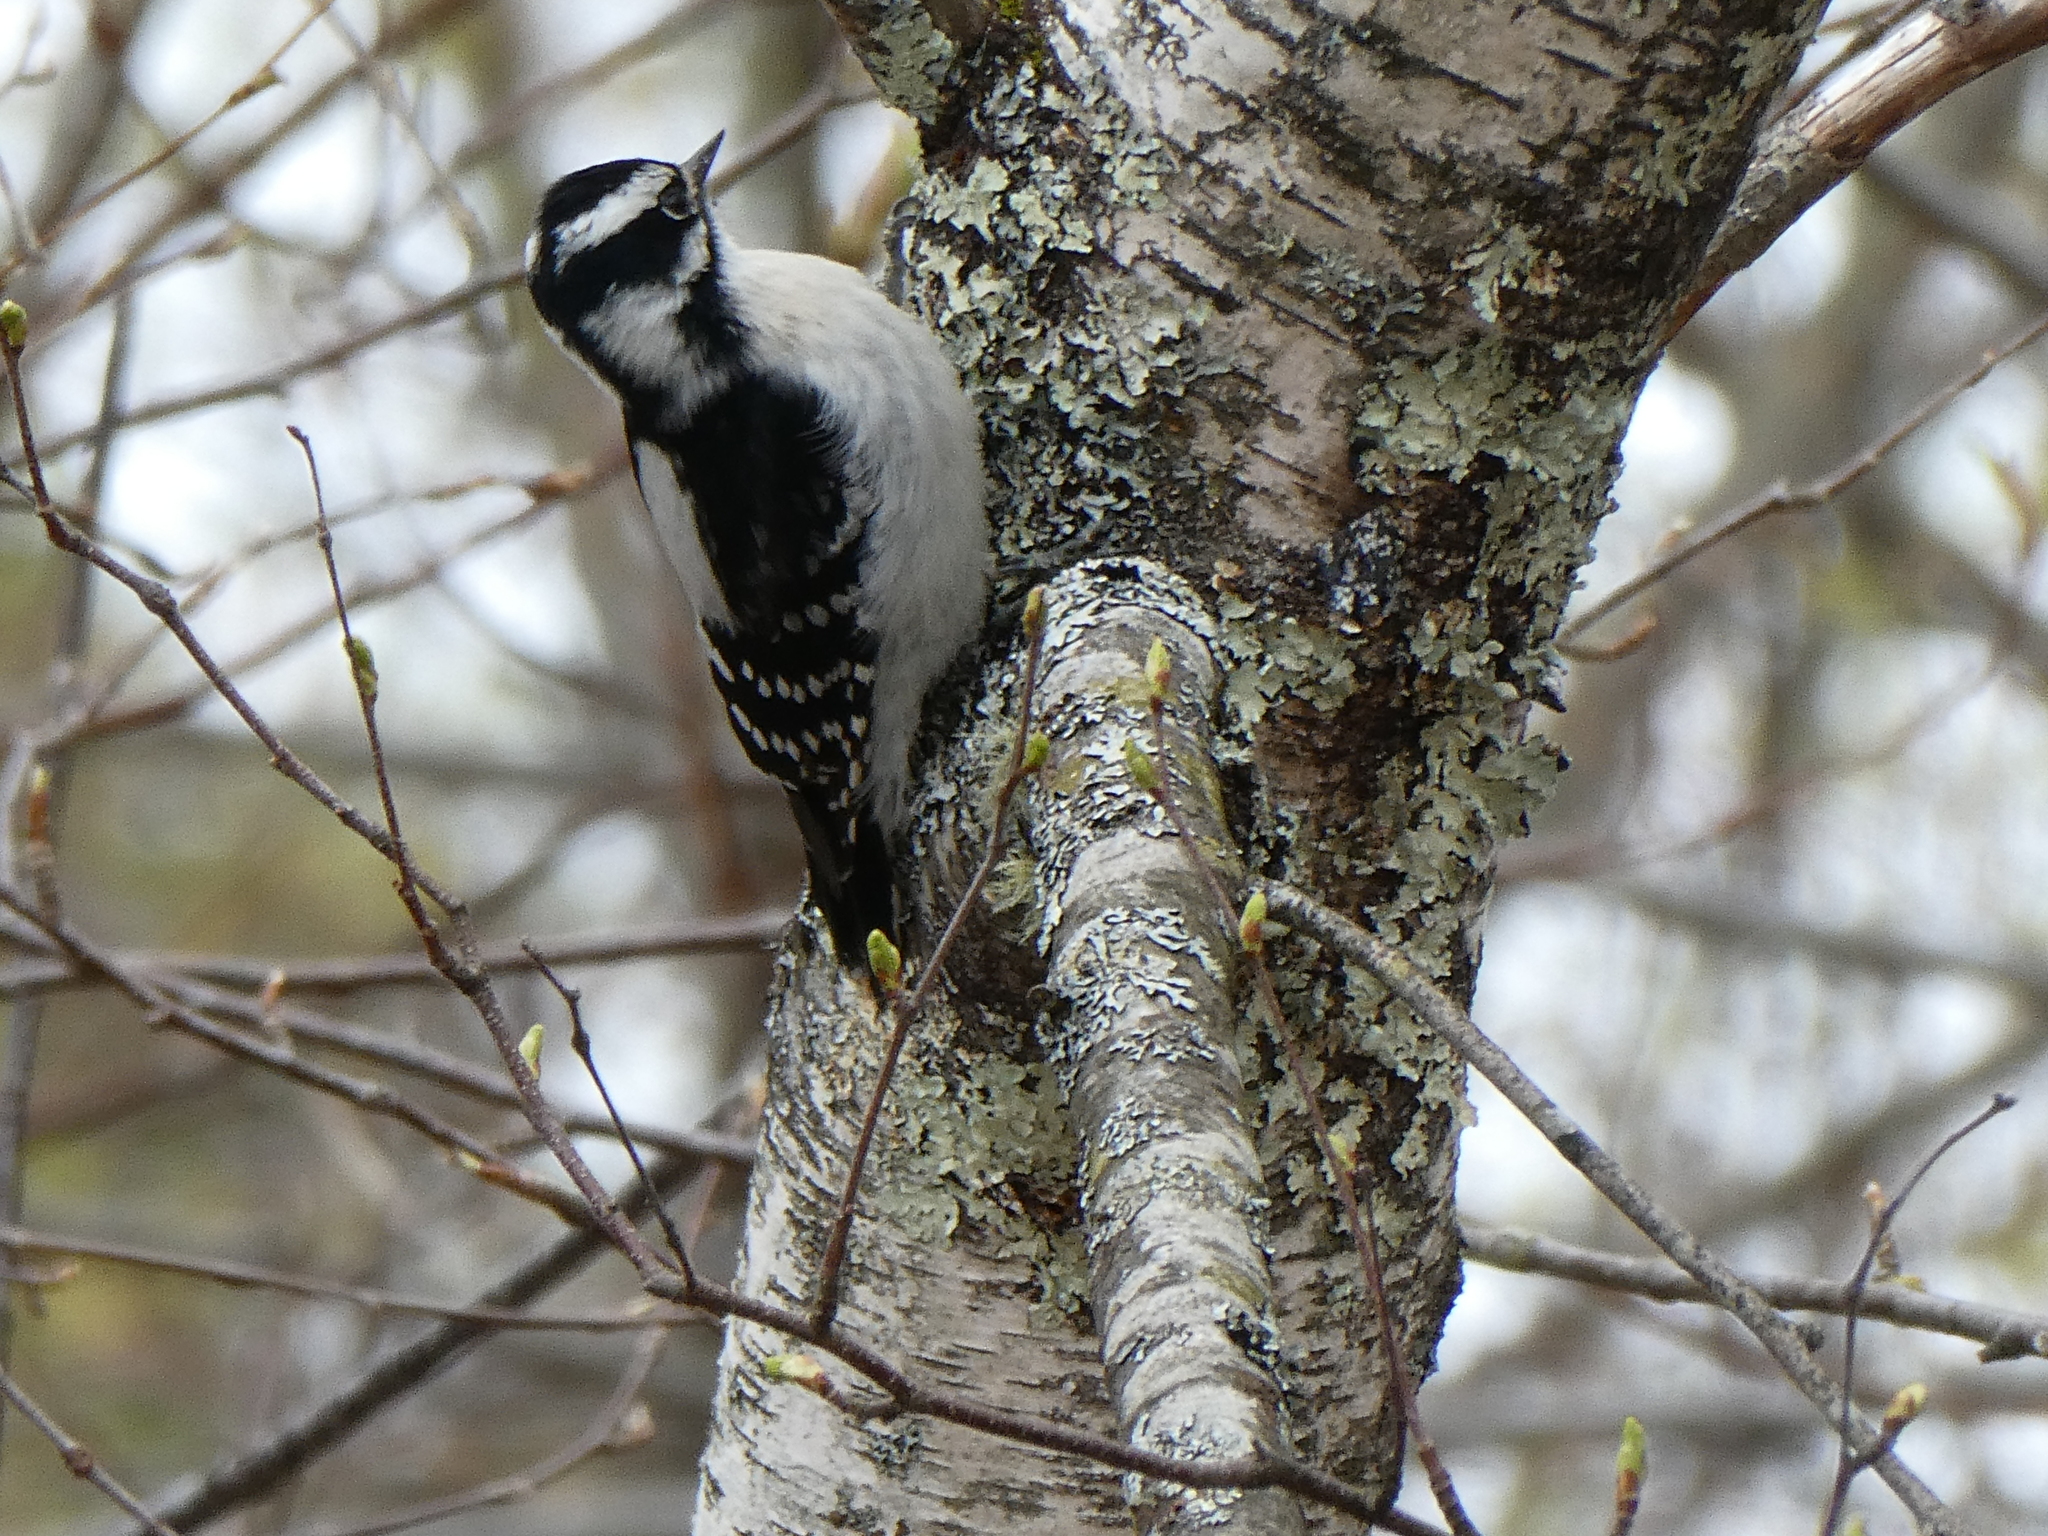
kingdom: Animalia
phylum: Chordata
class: Aves
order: Piciformes
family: Picidae
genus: Dryobates
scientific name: Dryobates pubescens
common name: Downy woodpecker
